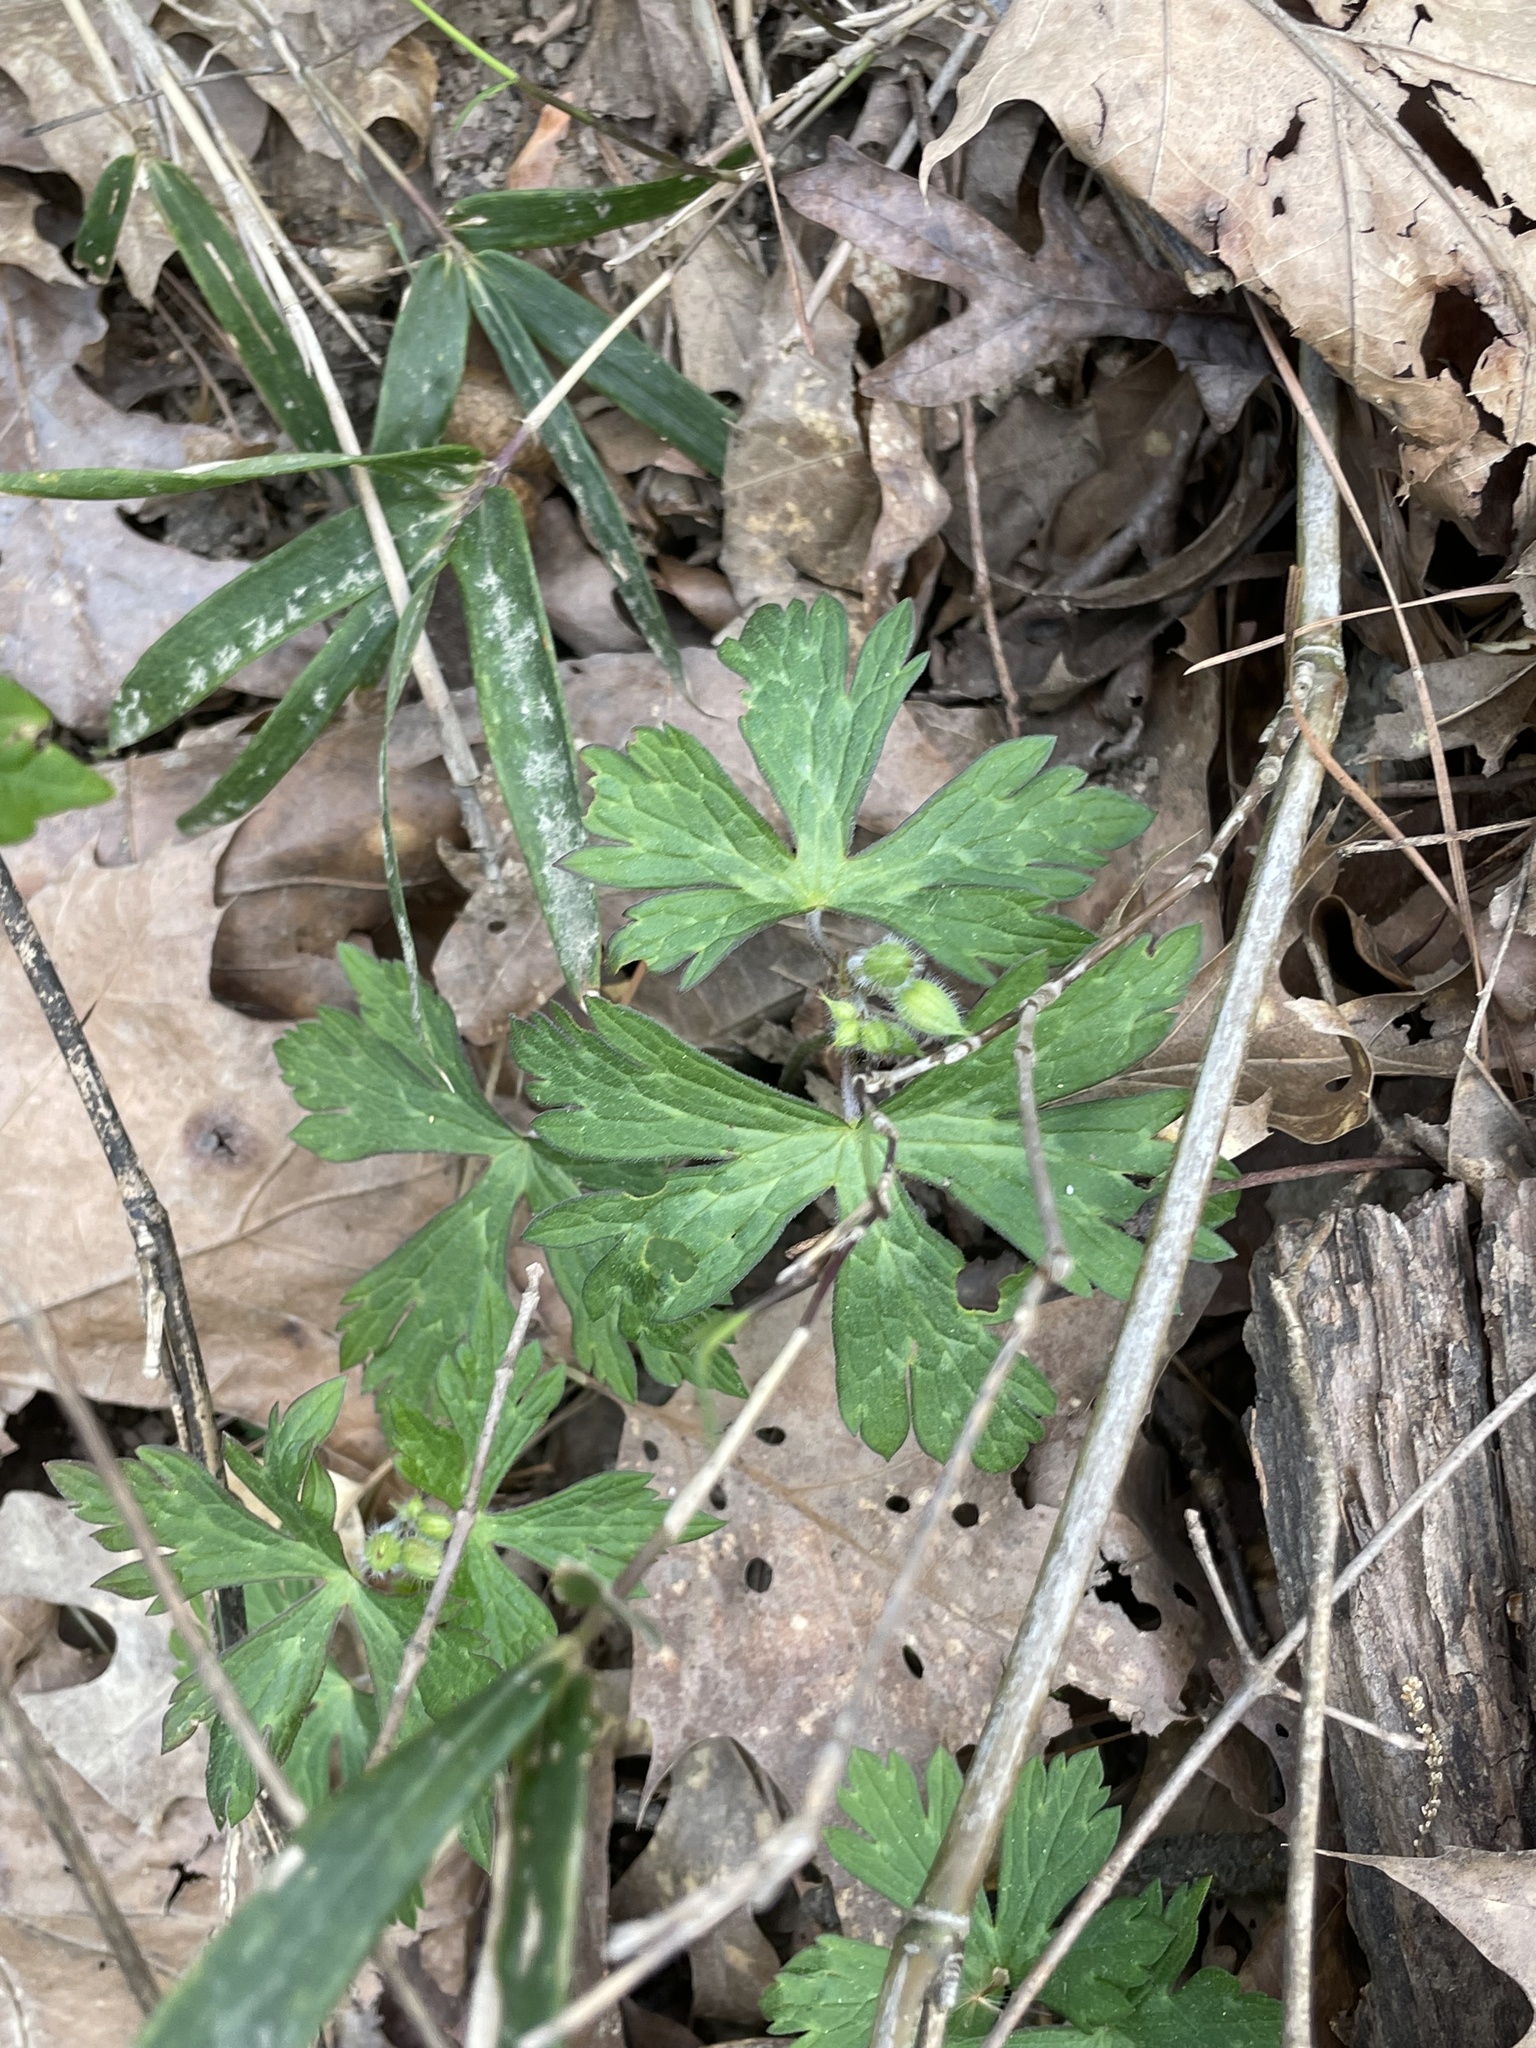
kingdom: Plantae
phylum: Tracheophyta
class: Magnoliopsida
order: Geraniales
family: Geraniaceae
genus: Geranium
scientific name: Geranium maculatum
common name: Spotted geranium
